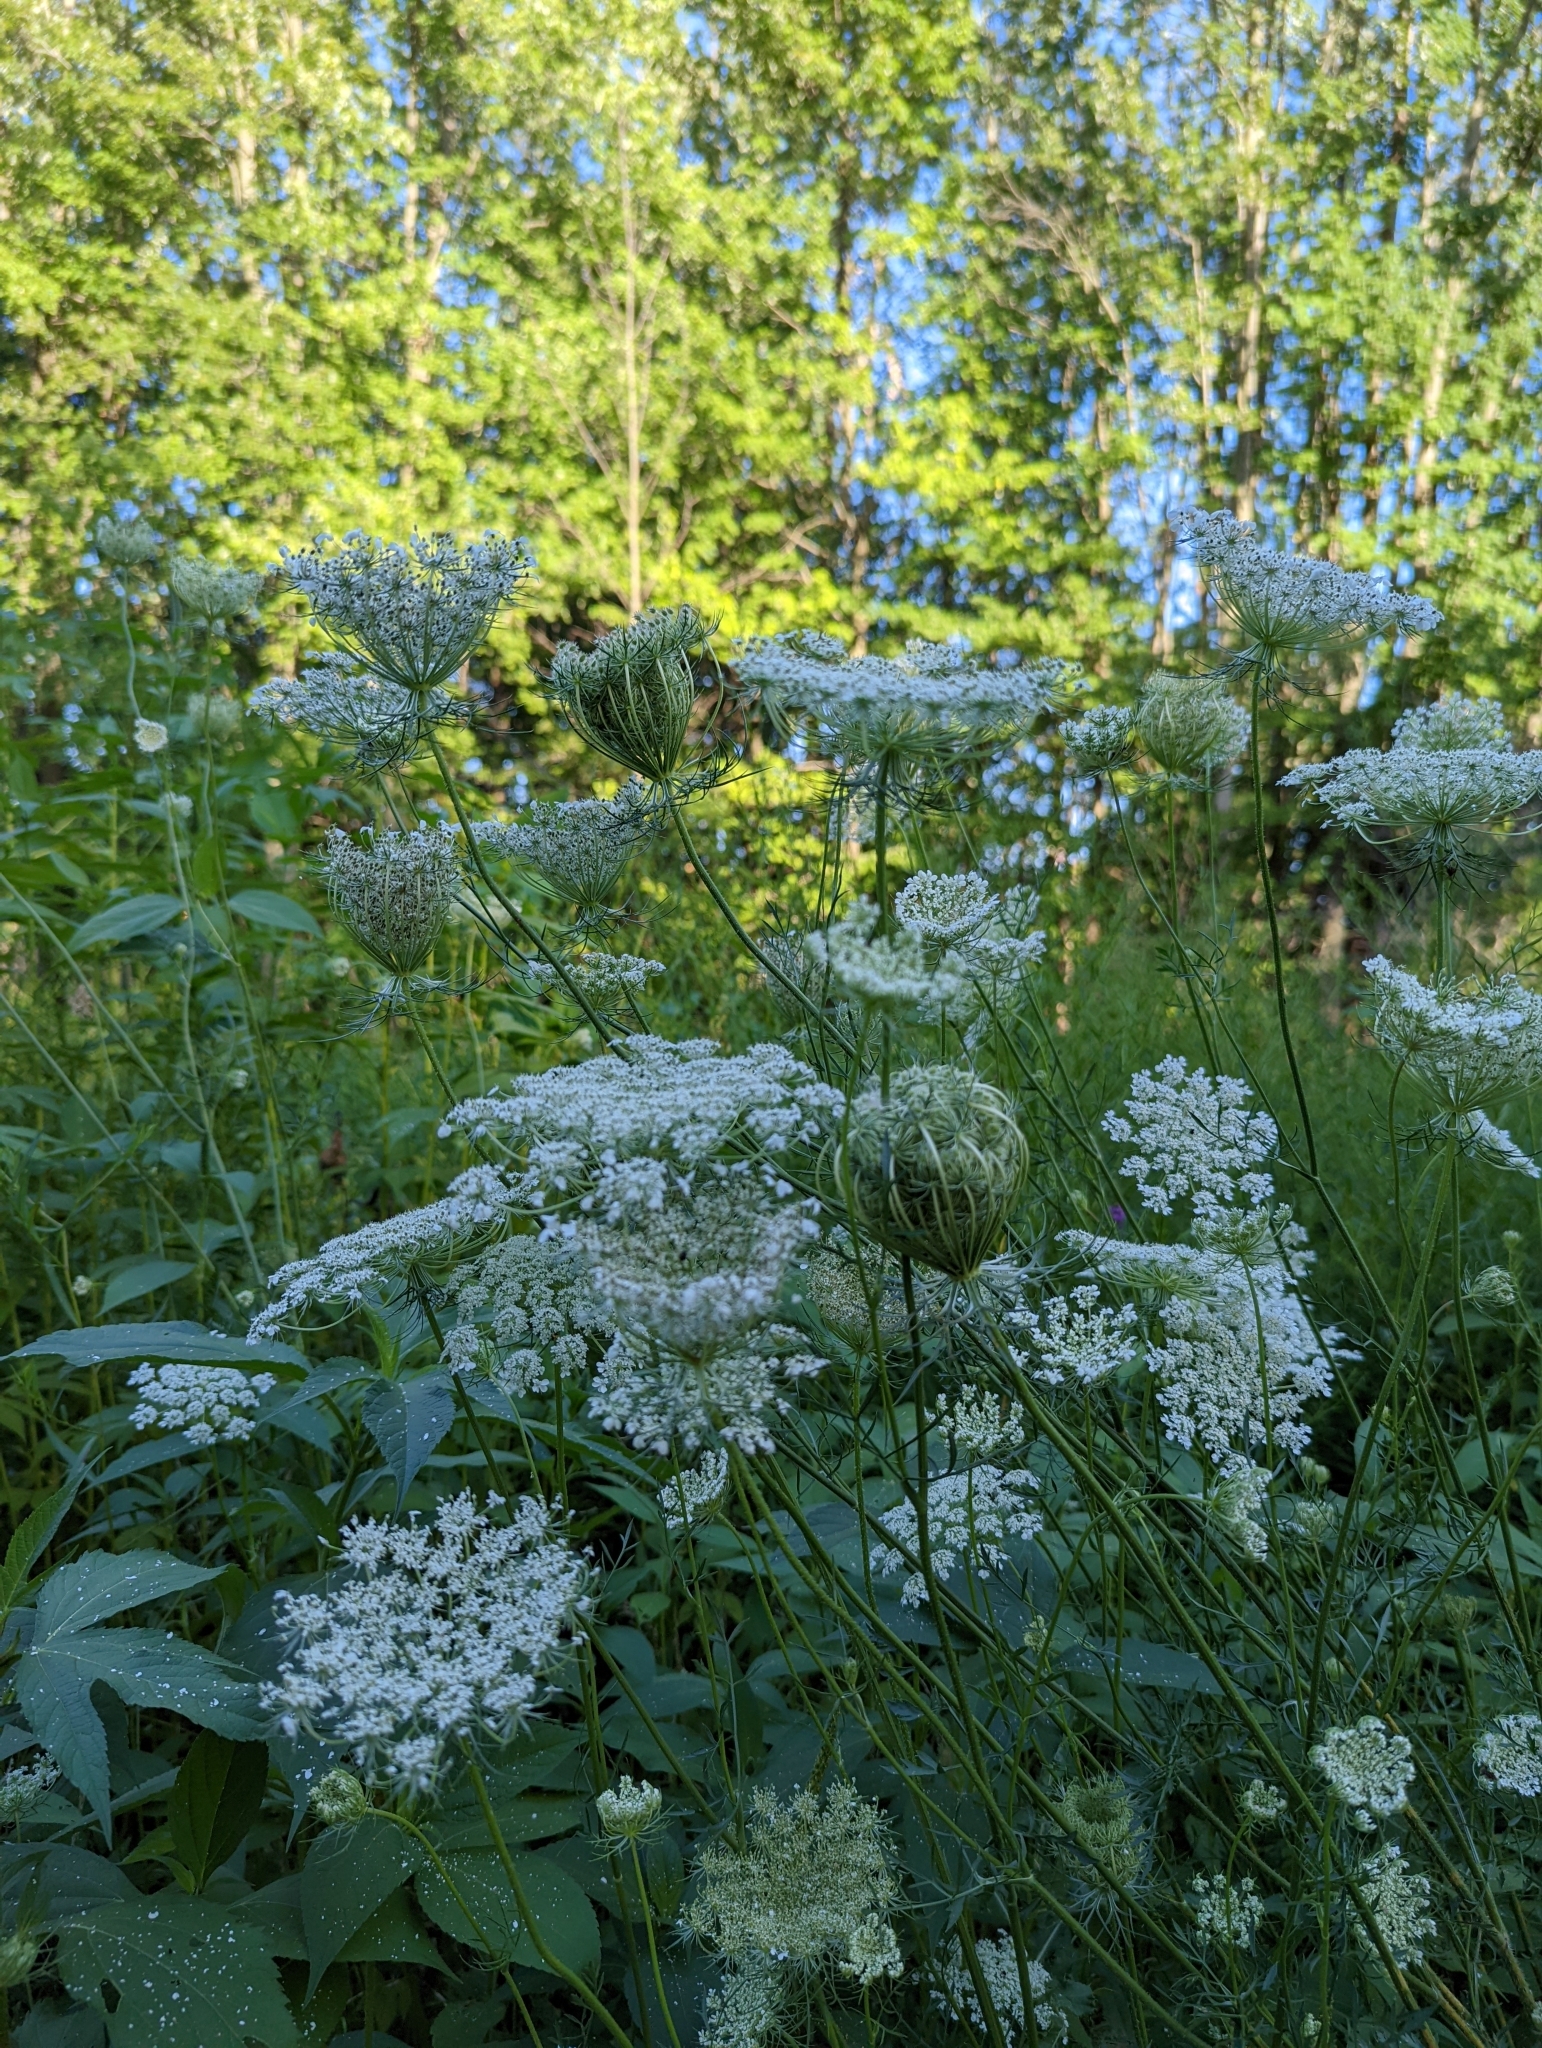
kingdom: Plantae
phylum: Tracheophyta
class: Magnoliopsida
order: Apiales
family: Apiaceae
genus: Daucus
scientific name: Daucus carota
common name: Wild carrot
